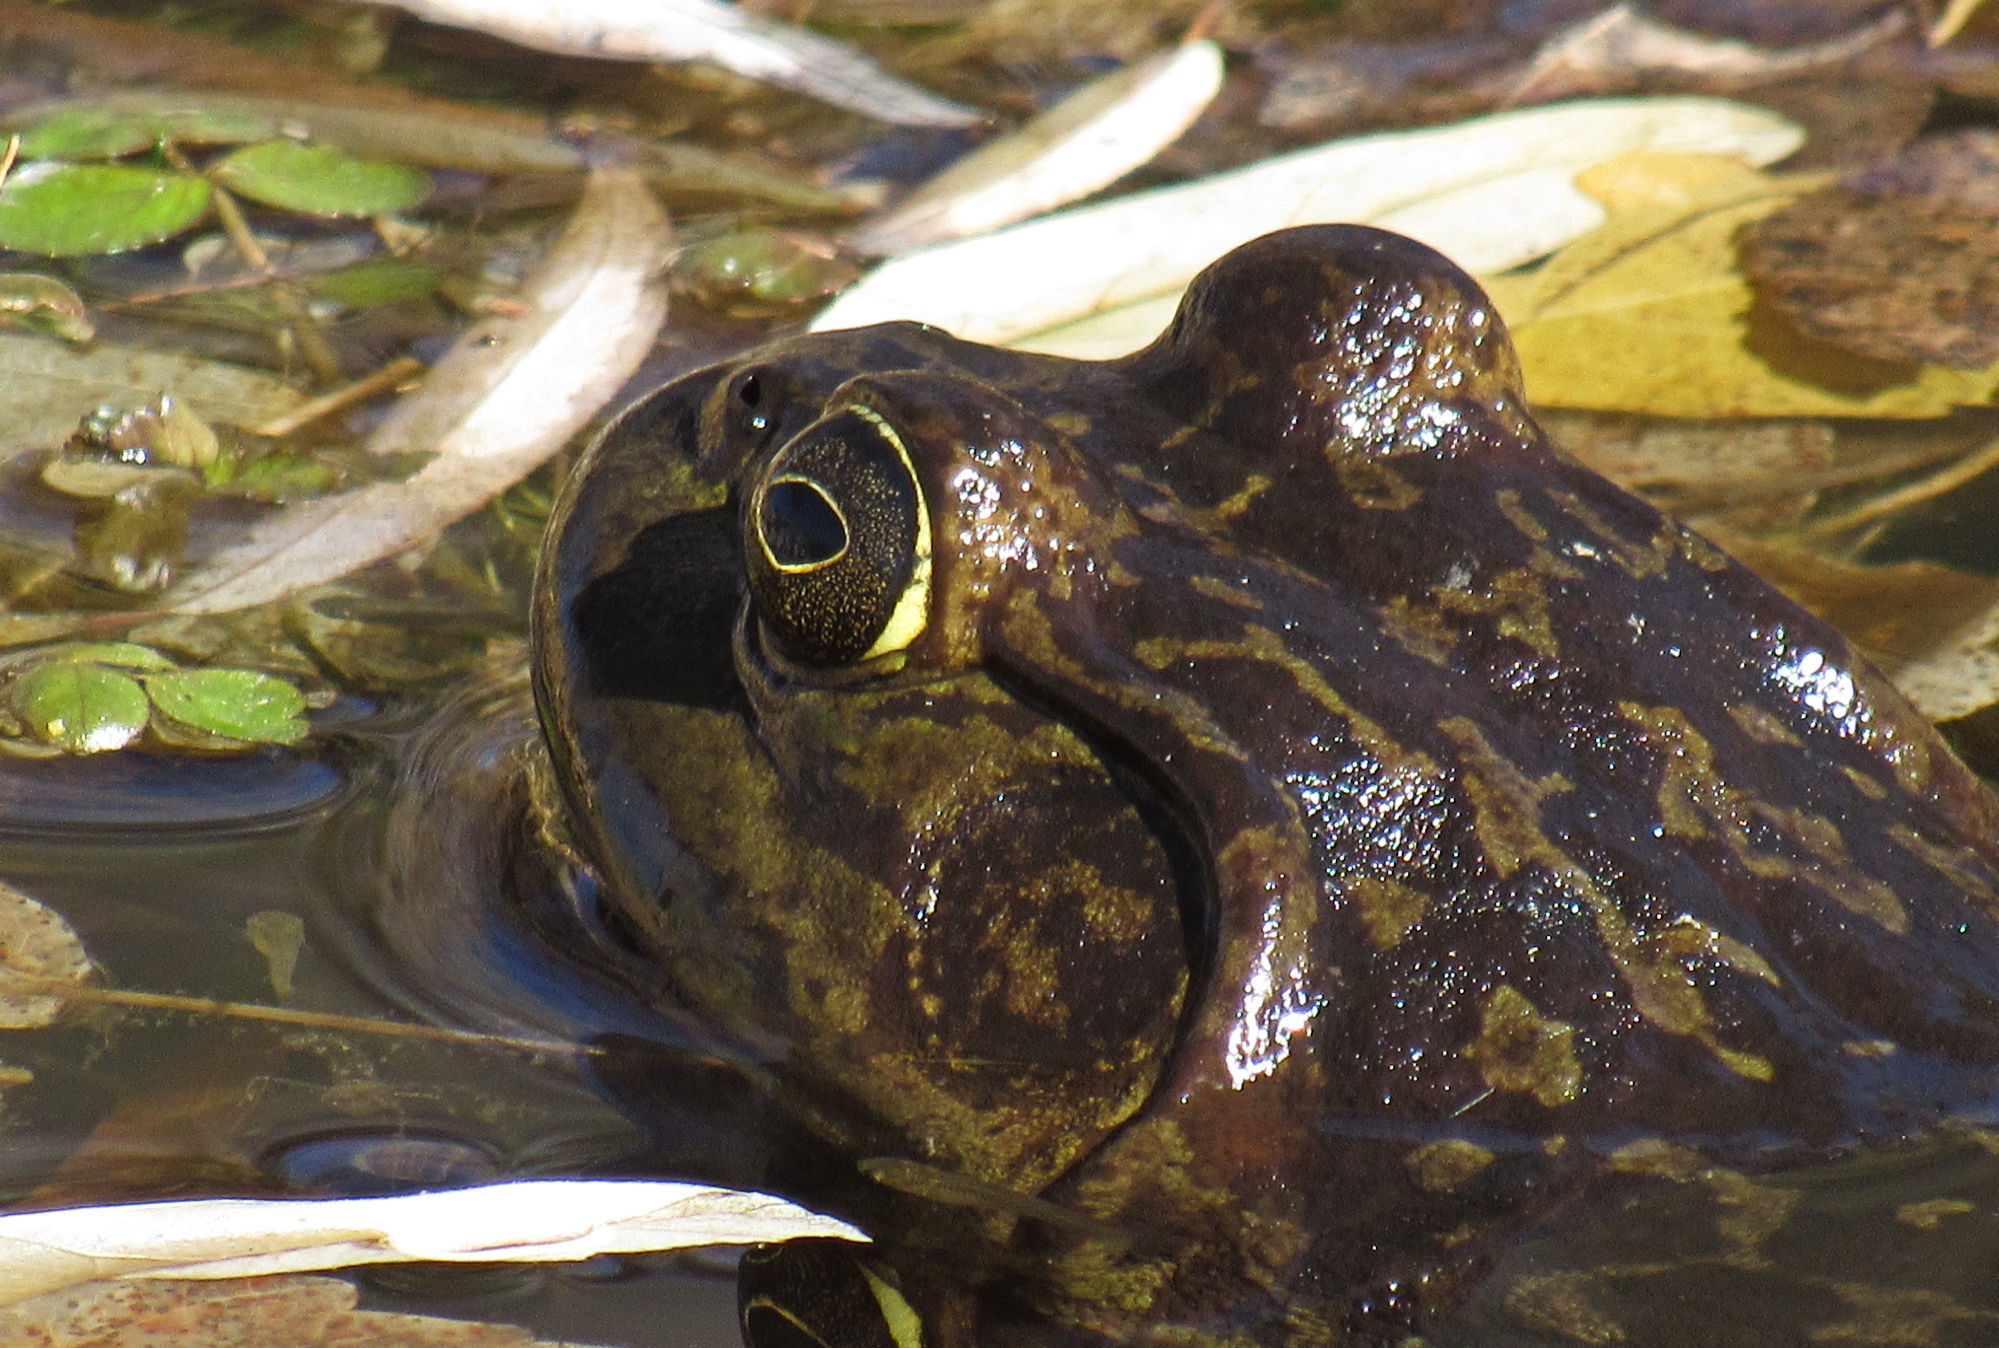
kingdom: Animalia
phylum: Chordata
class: Amphibia
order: Anura
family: Ranidae
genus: Lithobates
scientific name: Lithobates catesbeianus
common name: American bullfrog
